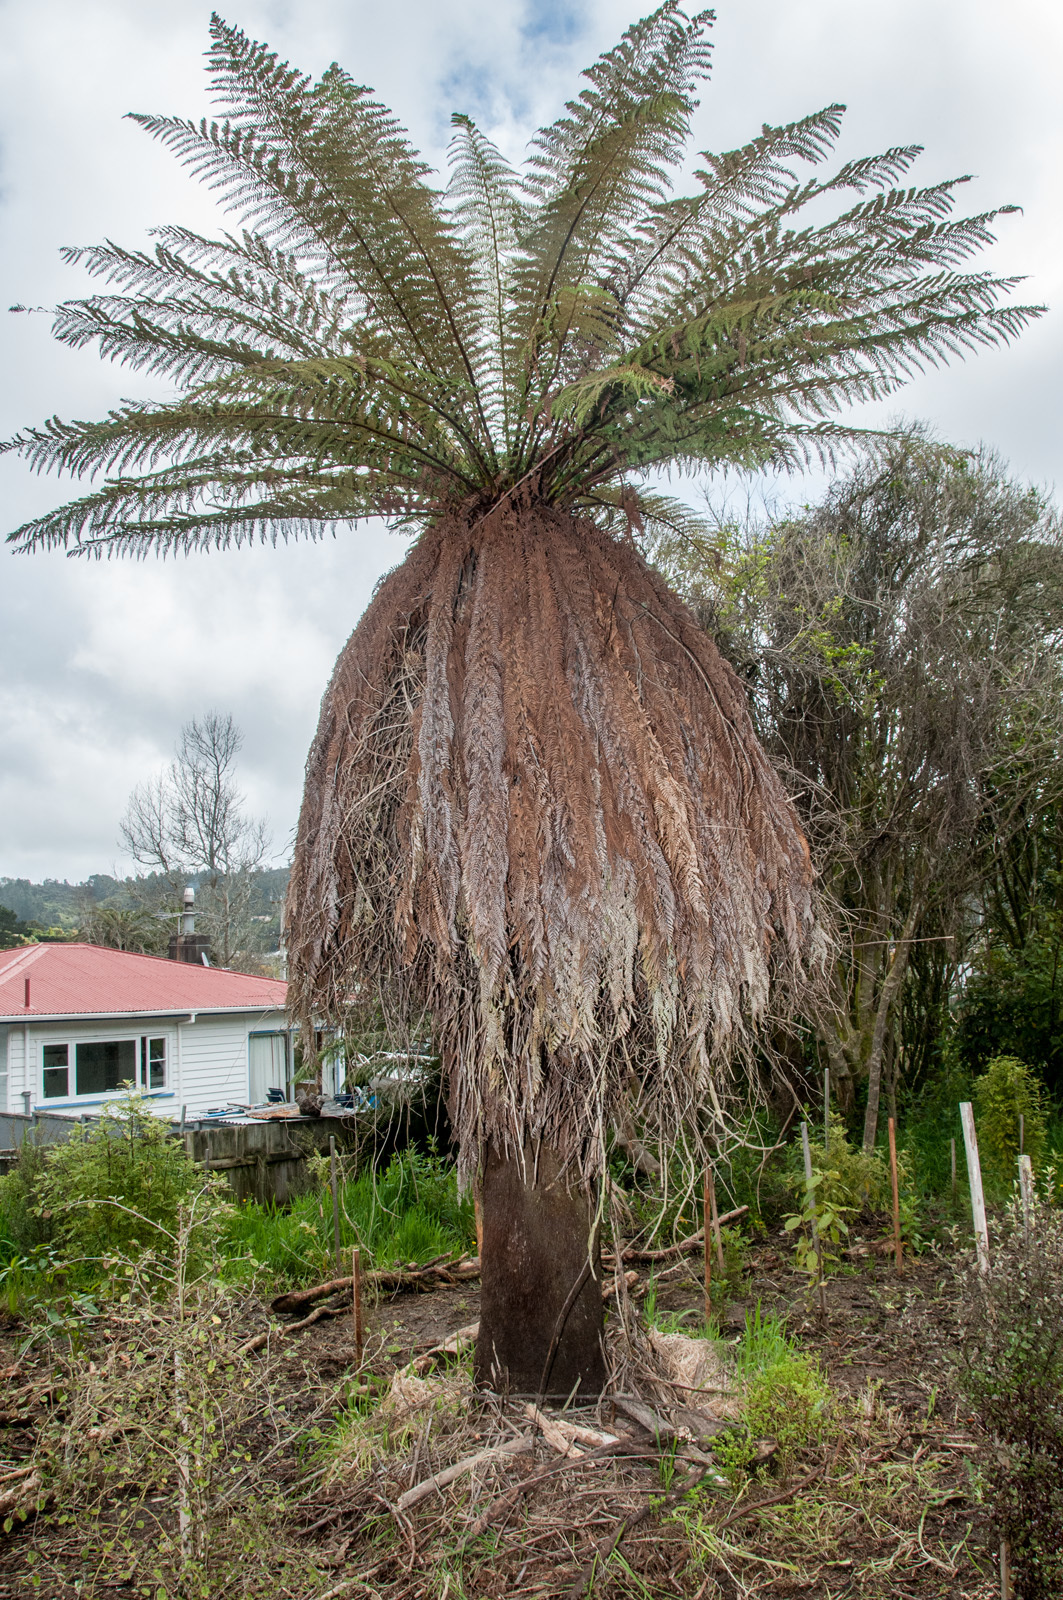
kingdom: Plantae
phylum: Tracheophyta
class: Polypodiopsida
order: Cyatheales
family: Dicksoniaceae
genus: Dicksonia
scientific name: Dicksonia fibrosa
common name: Golden tree fern
